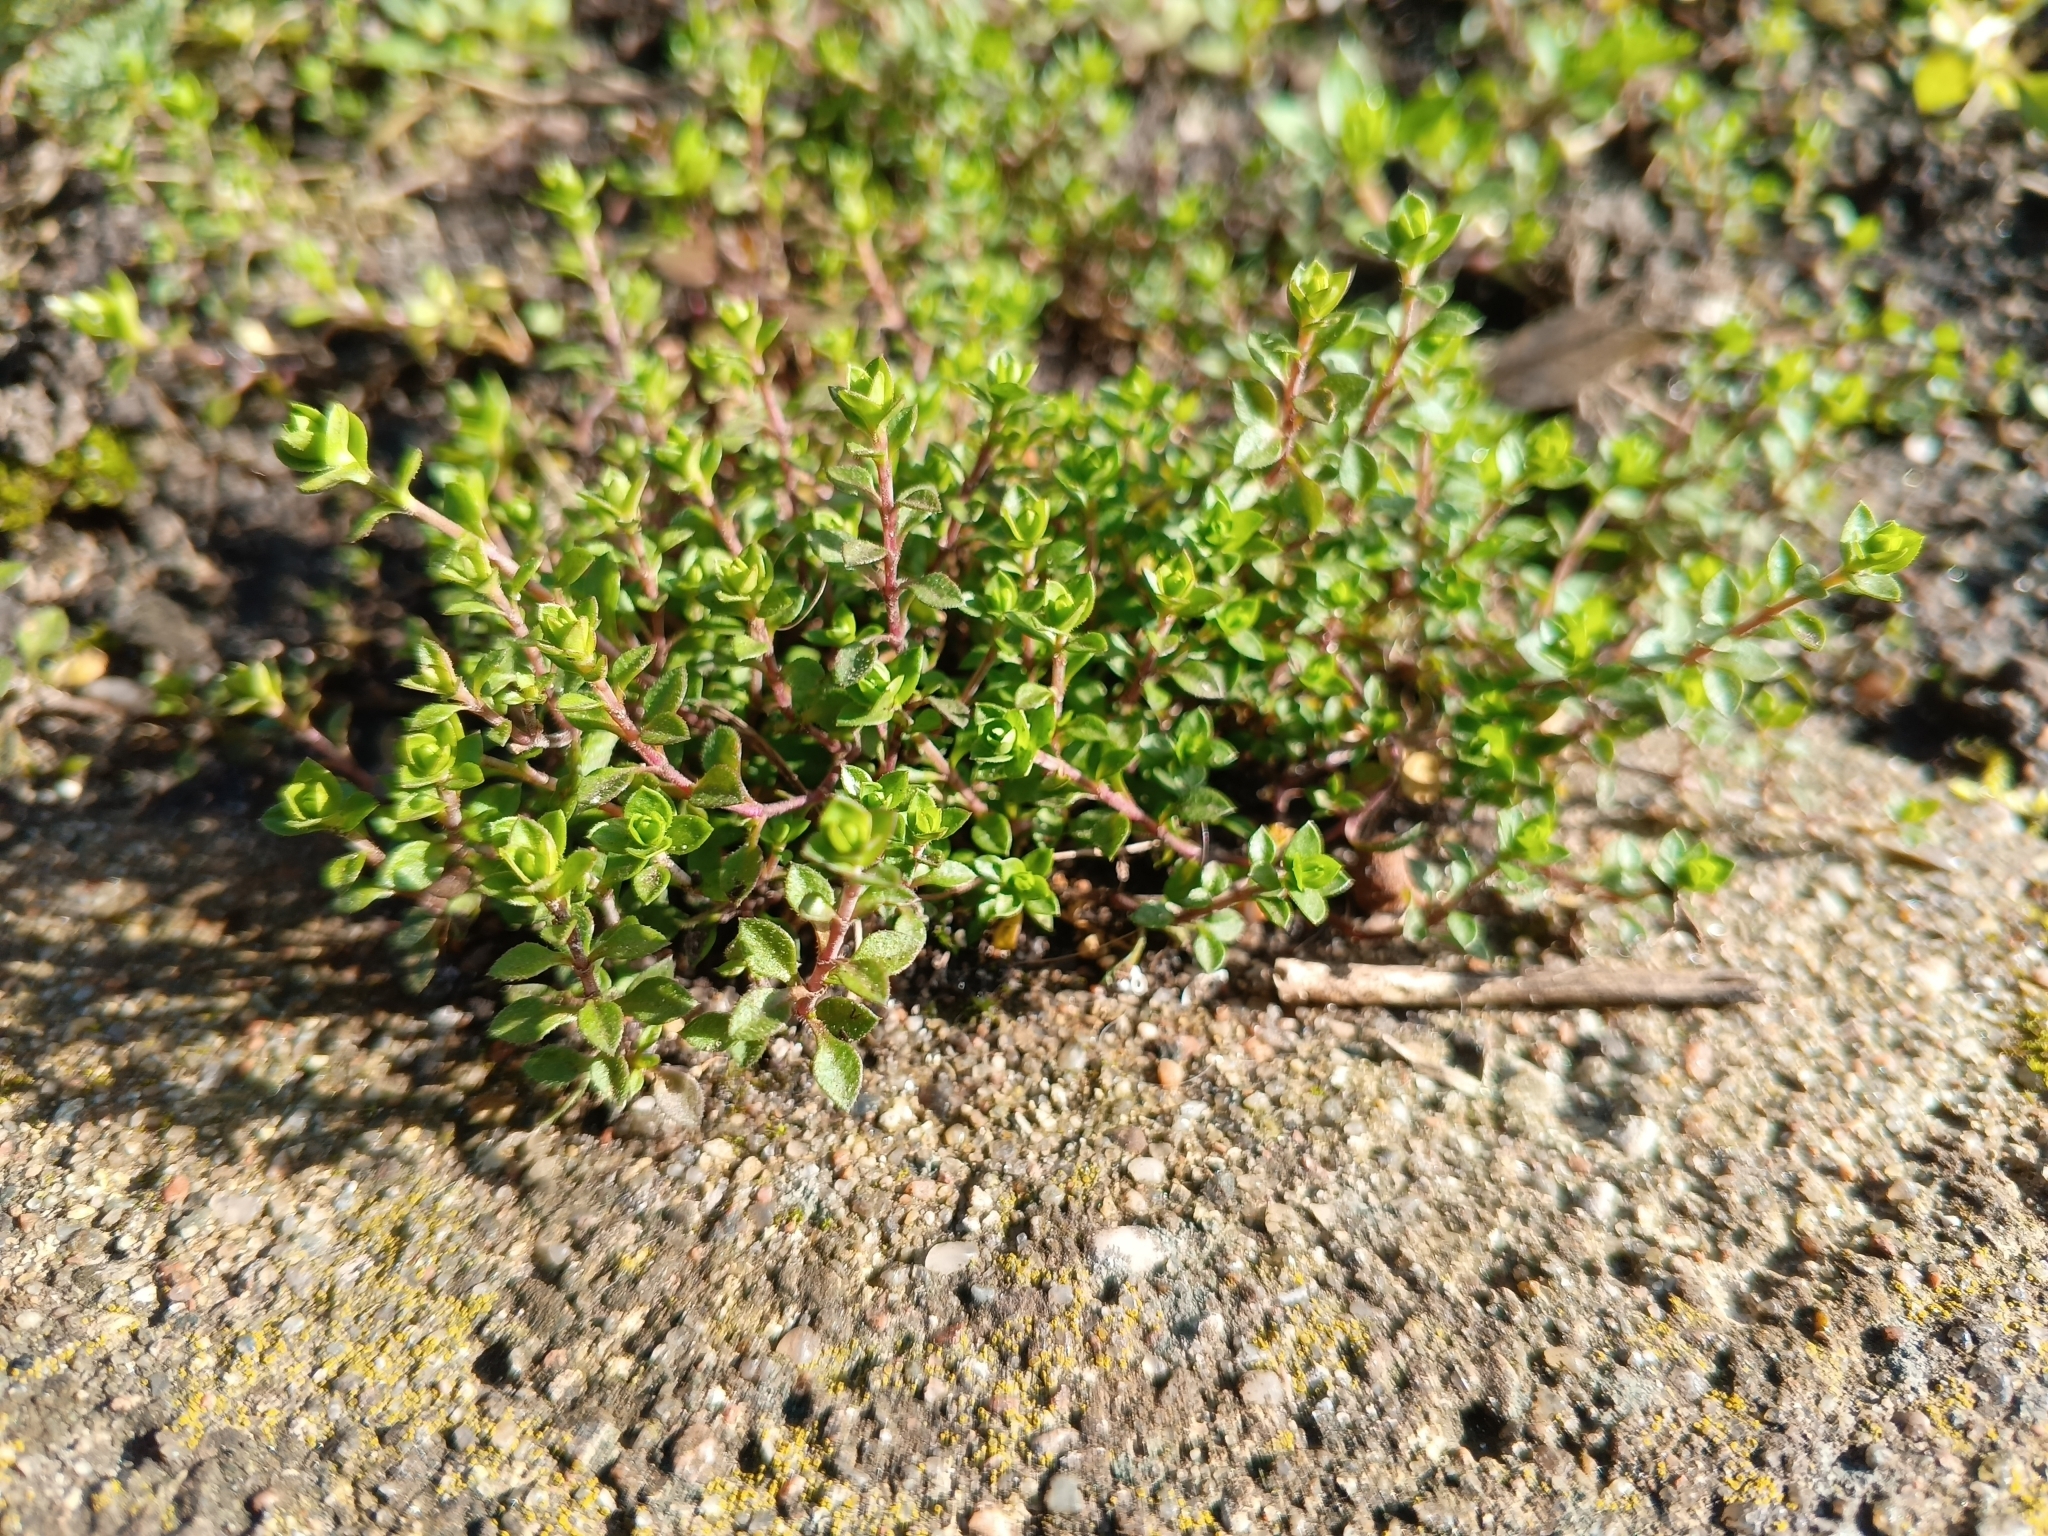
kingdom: Plantae
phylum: Tracheophyta
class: Magnoliopsida
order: Caryophyllales
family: Caryophyllaceae
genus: Arenaria
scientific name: Arenaria serpyllifolia
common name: Thyme-leaved sandwort
